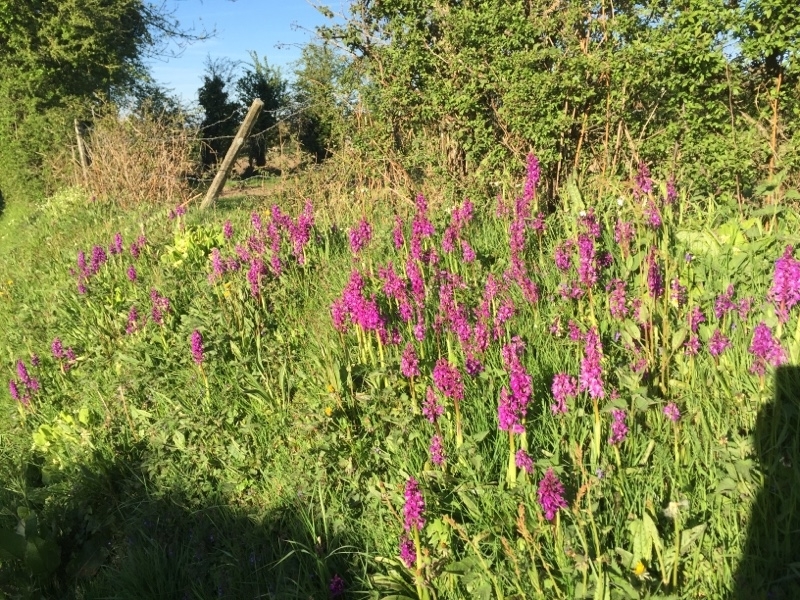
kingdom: Plantae
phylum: Tracheophyta
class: Liliopsida
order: Asparagales
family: Orchidaceae
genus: Orchis
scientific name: Orchis mascula
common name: Early-purple orchid
